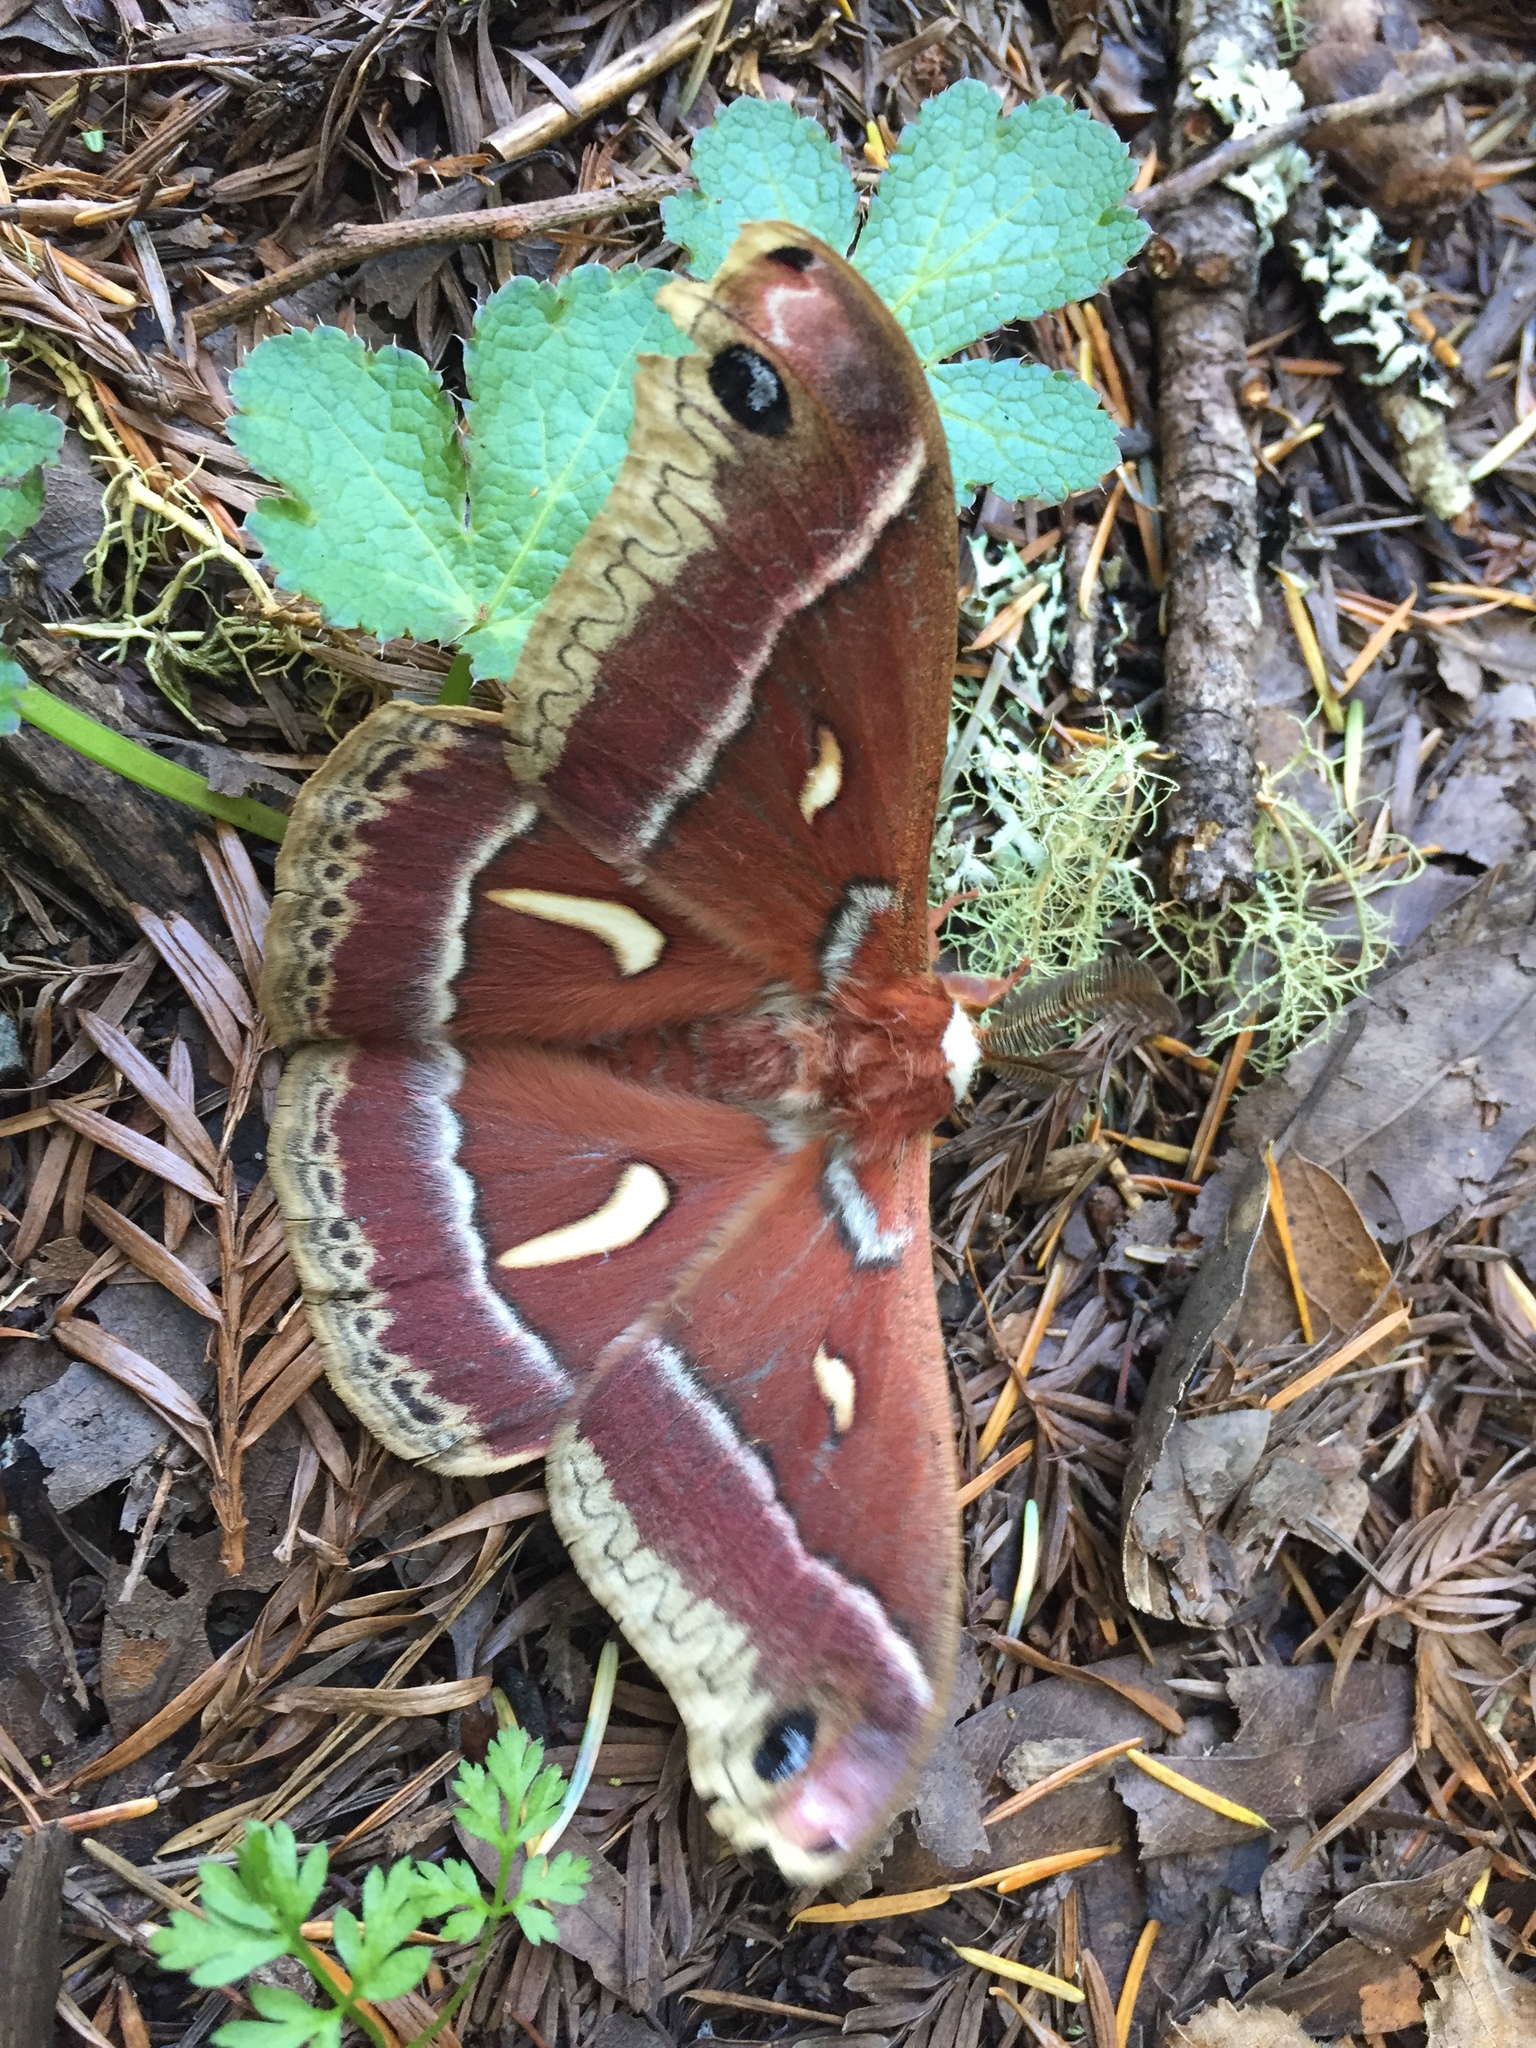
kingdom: Animalia
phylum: Arthropoda
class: Insecta
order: Lepidoptera
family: Saturniidae
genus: Hyalophora
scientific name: Hyalophora euryalus
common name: Ceanothus silkmoth
